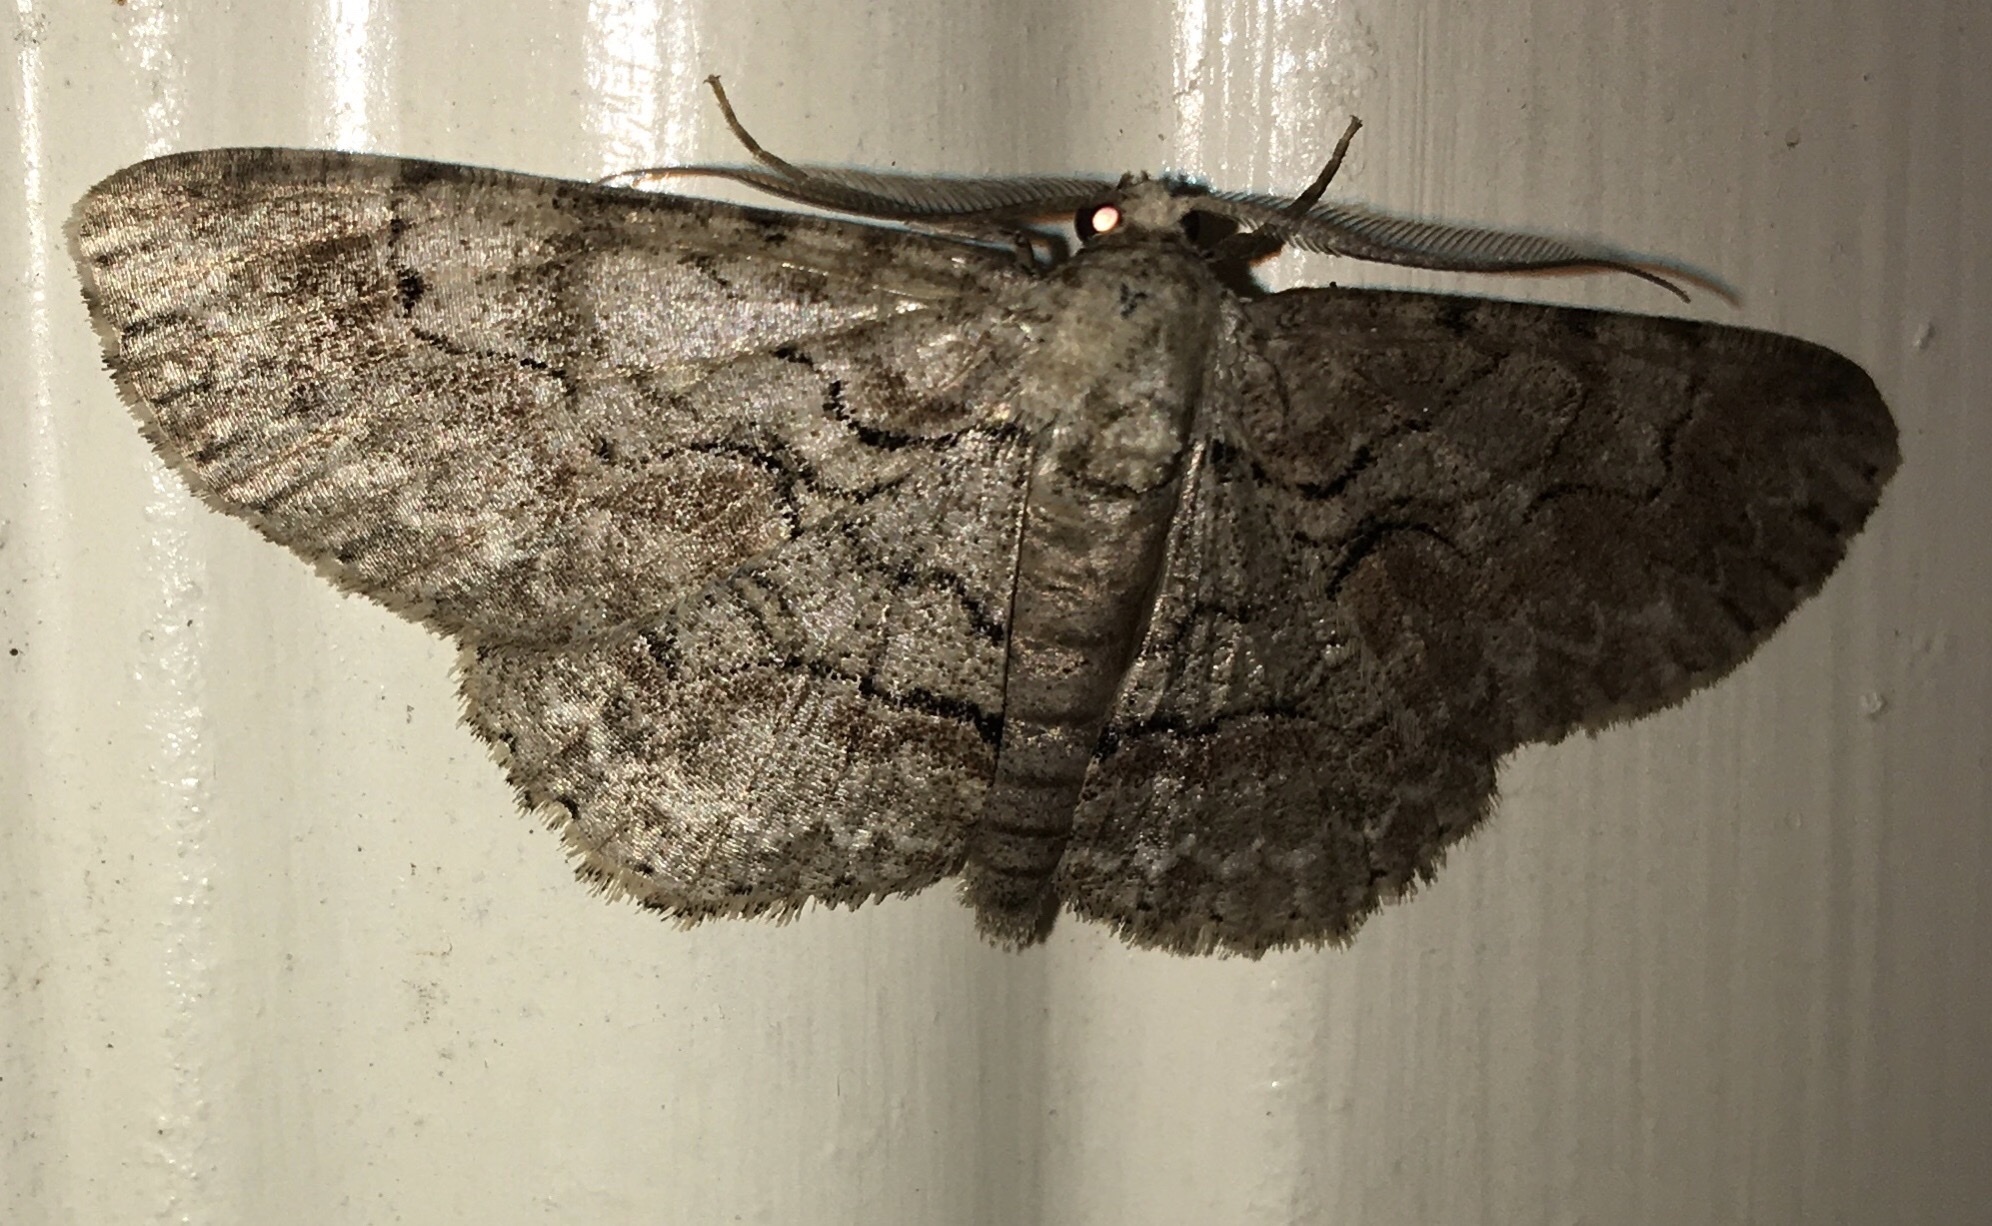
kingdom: Animalia
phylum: Arthropoda
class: Insecta
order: Lepidoptera
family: Geometridae
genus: Iridopsis
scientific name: Iridopsis vellivolata
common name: Large purplish gray
